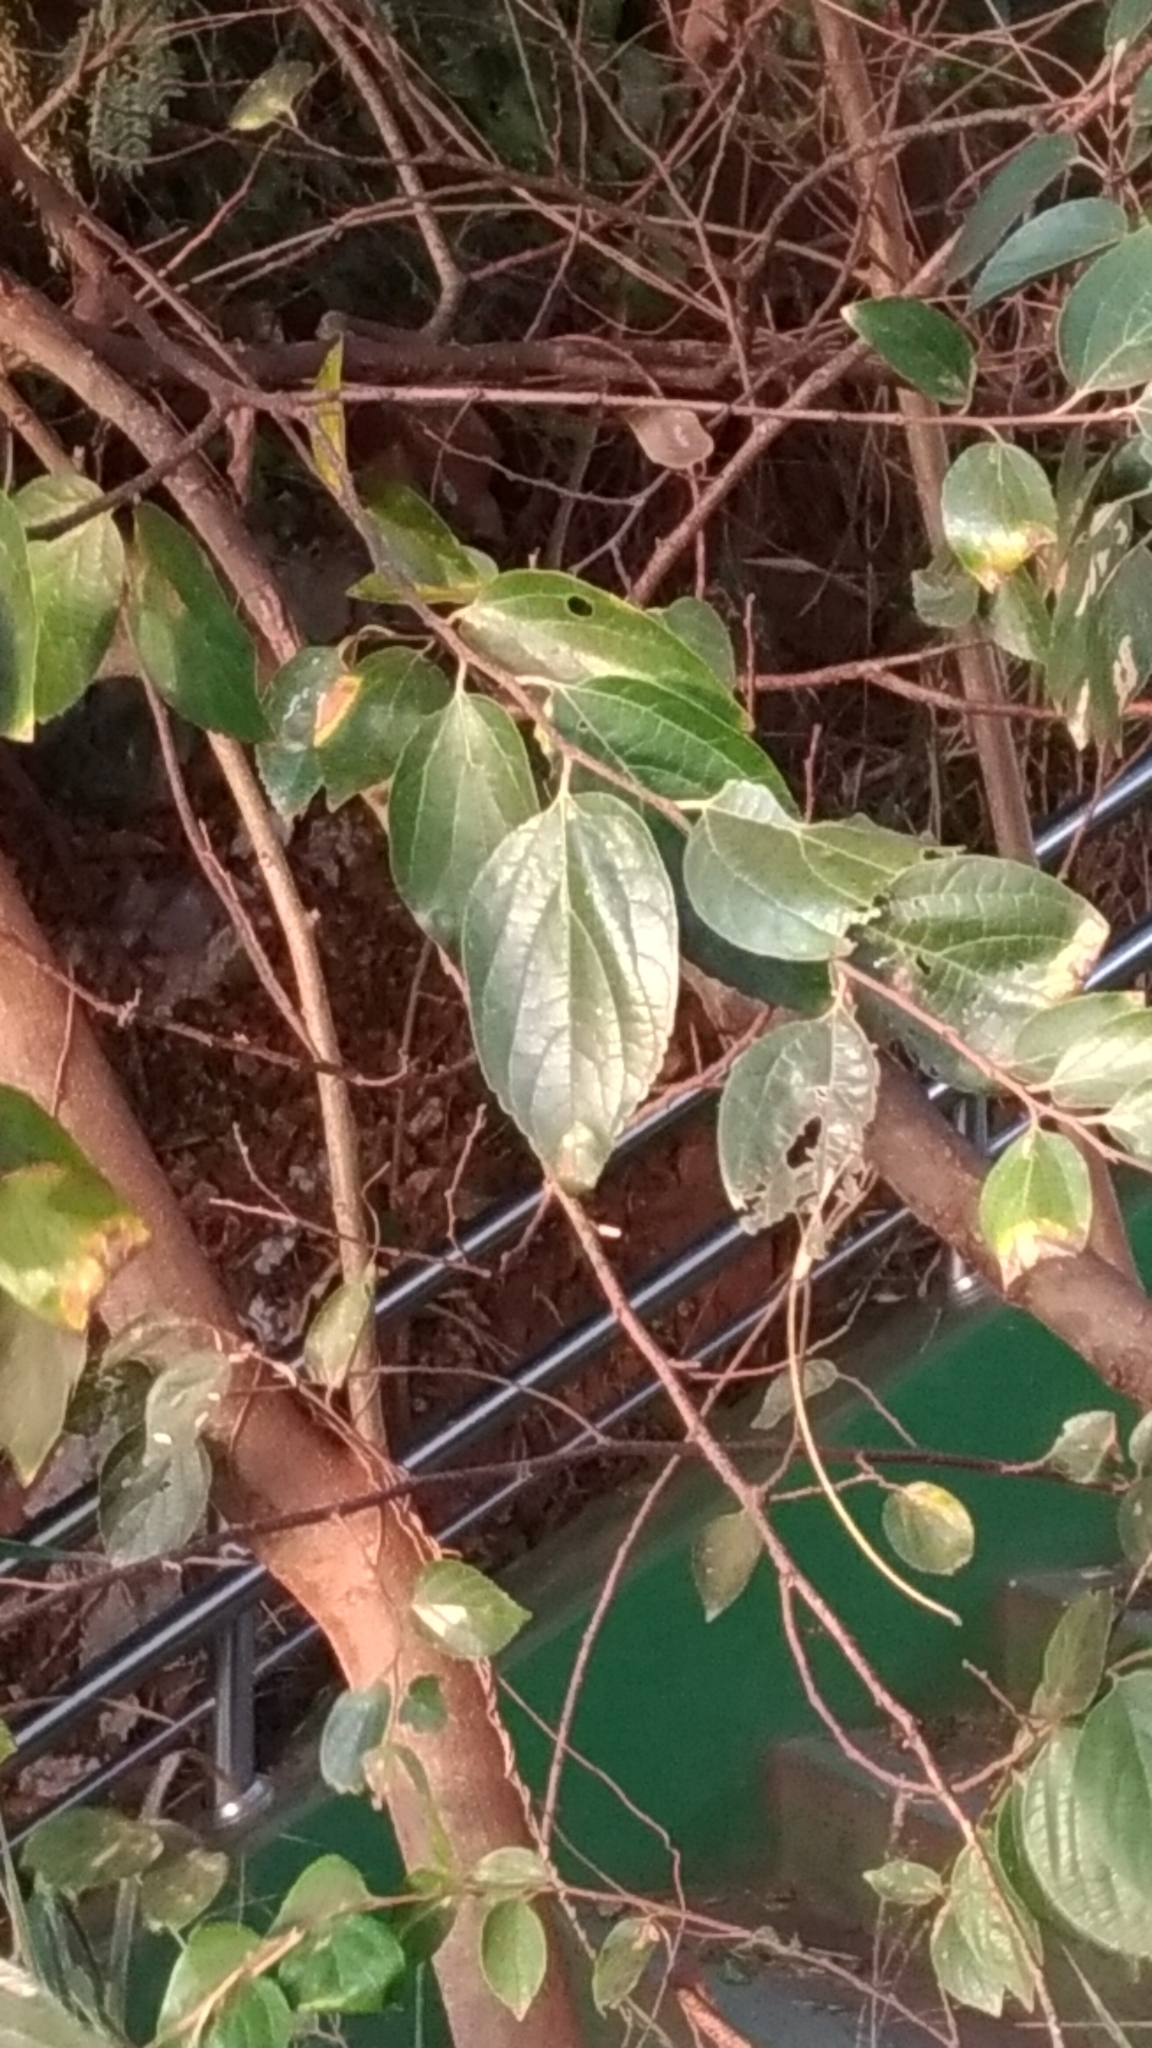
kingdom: Plantae
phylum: Tracheophyta
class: Magnoliopsida
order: Rosales
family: Cannabaceae
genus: Celtis
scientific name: Celtis sinensis
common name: Chinese hackberry
